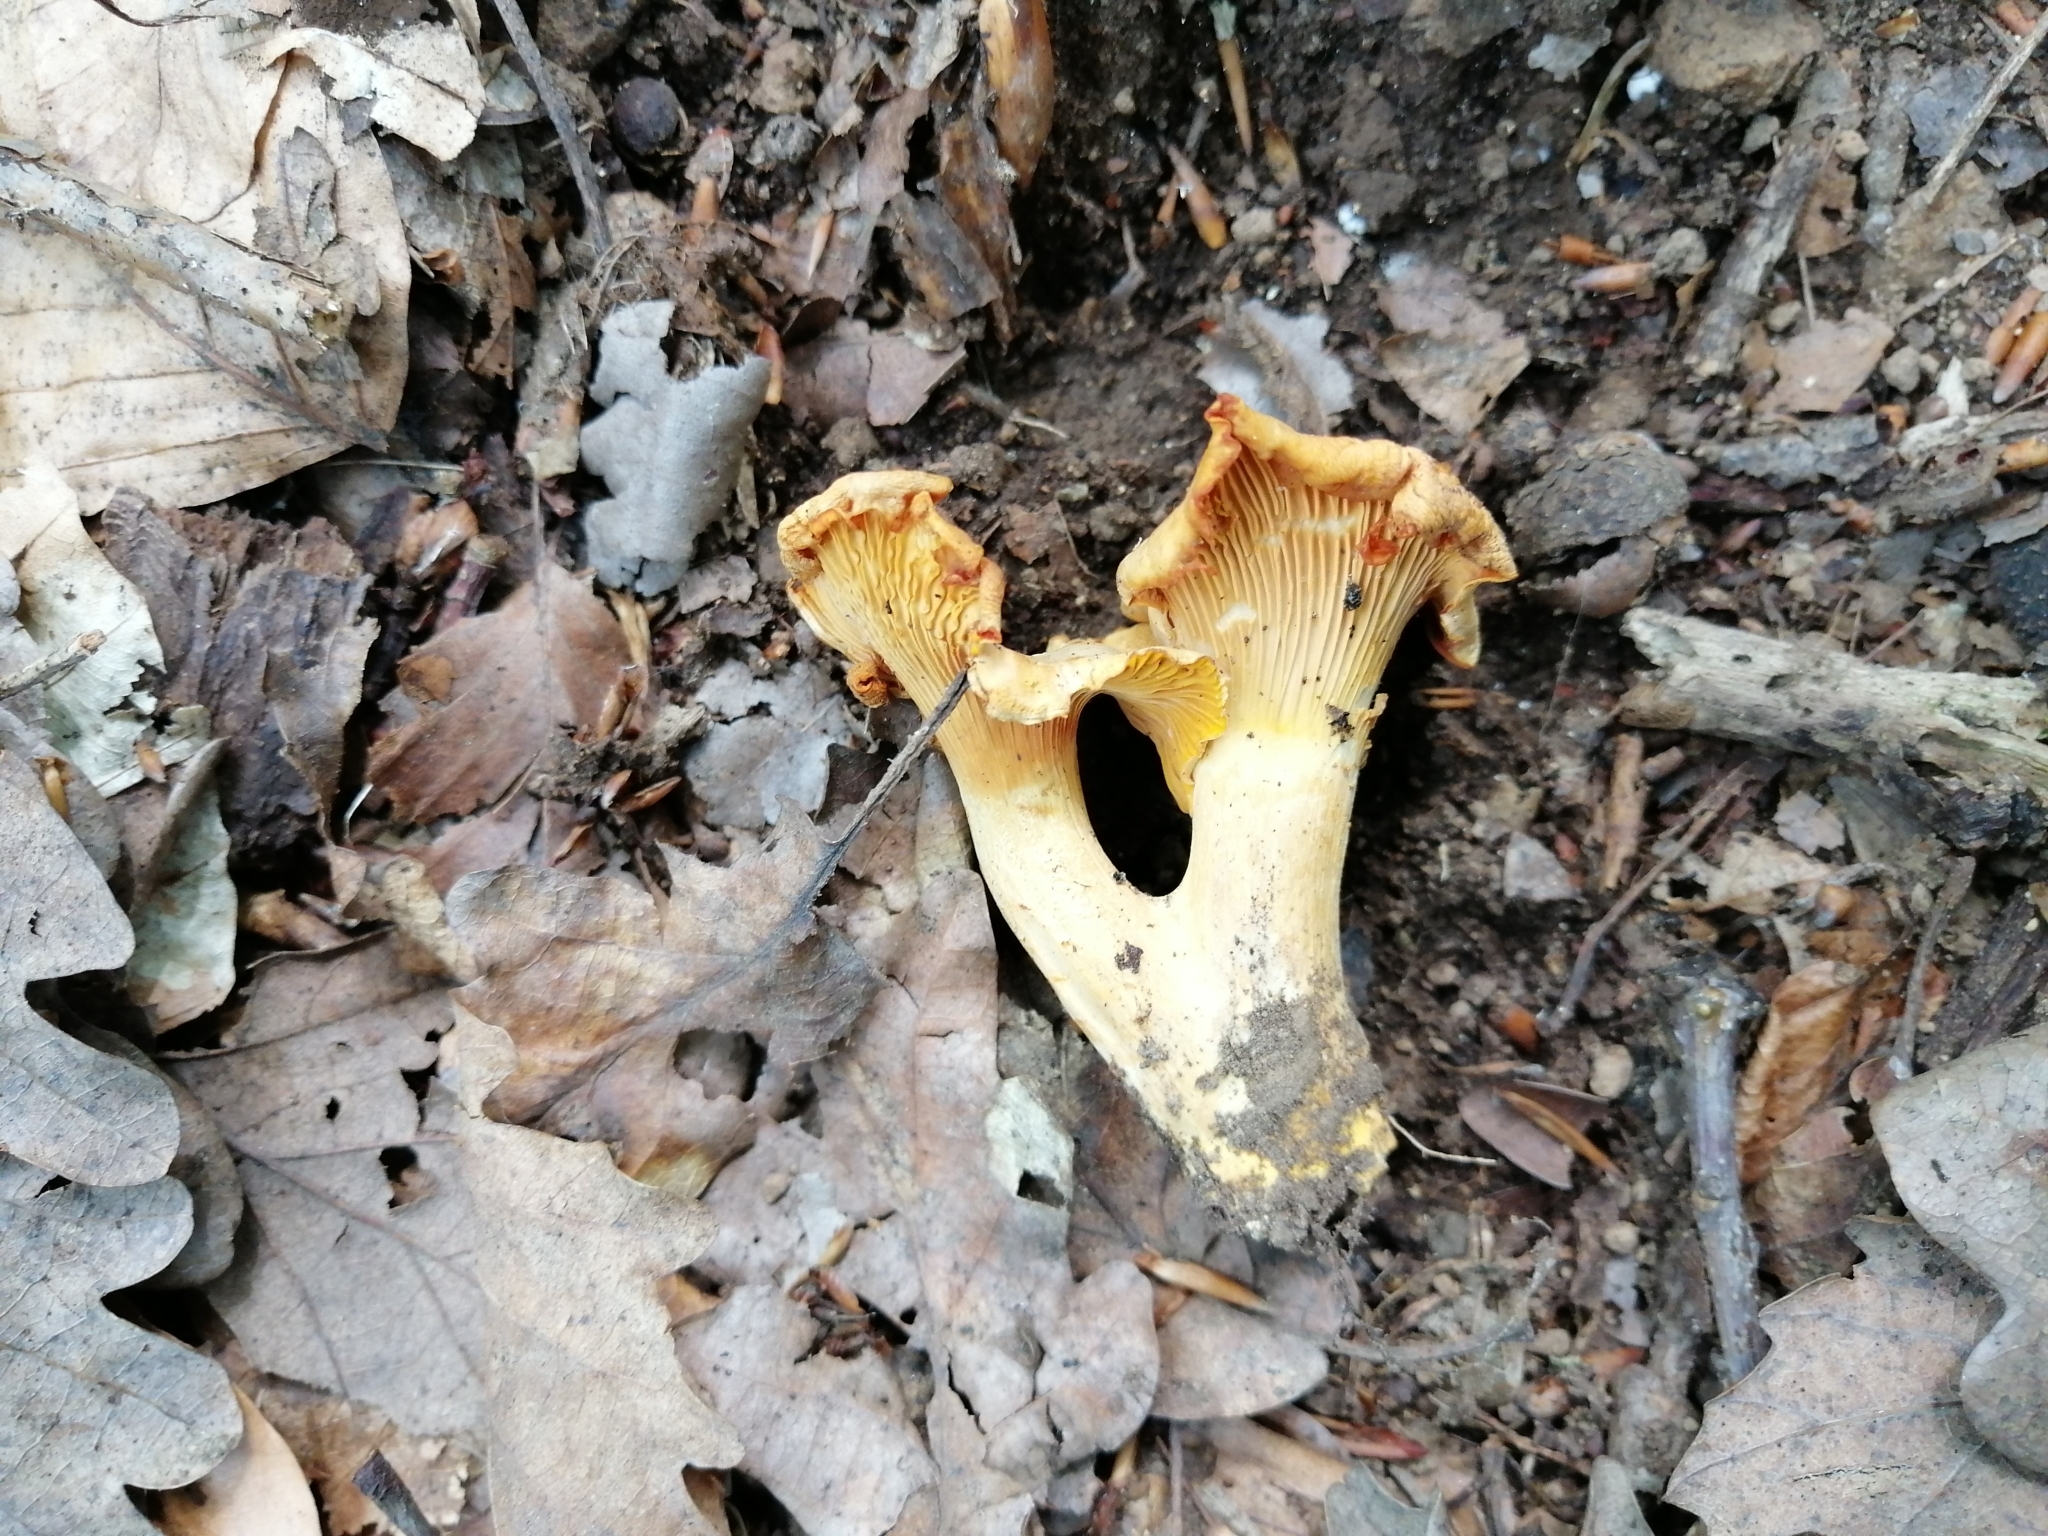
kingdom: Fungi
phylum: Basidiomycota
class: Agaricomycetes
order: Cantharellales
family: Hydnaceae
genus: Cantharellus
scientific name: Cantharellus pallens
